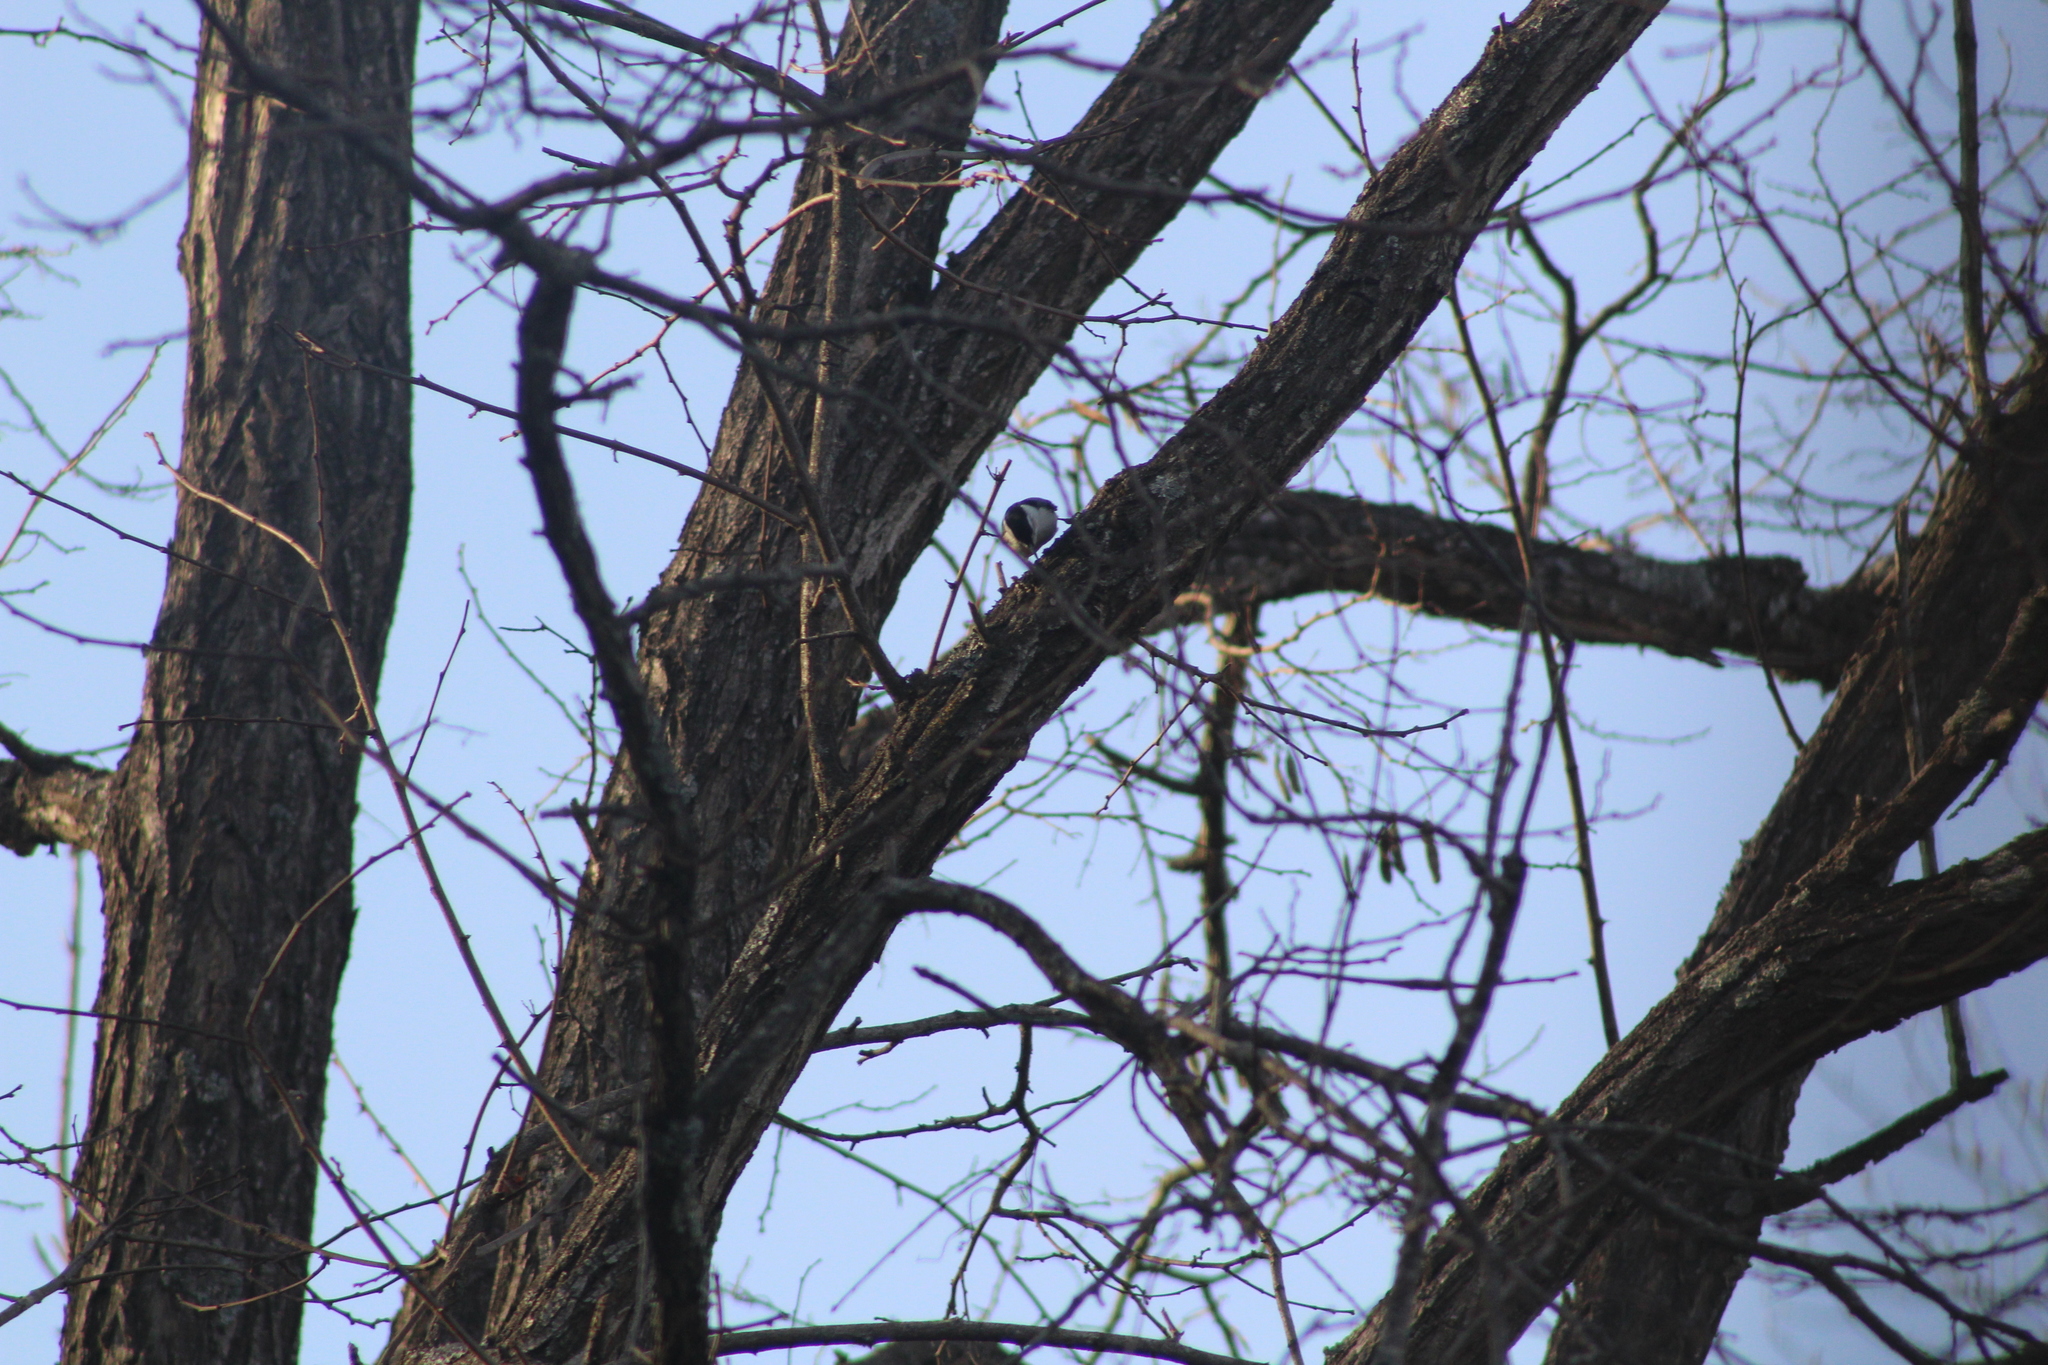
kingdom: Animalia
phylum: Chordata
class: Aves
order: Passeriformes
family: Sittidae
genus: Sitta
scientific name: Sitta carolinensis
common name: White-breasted nuthatch
